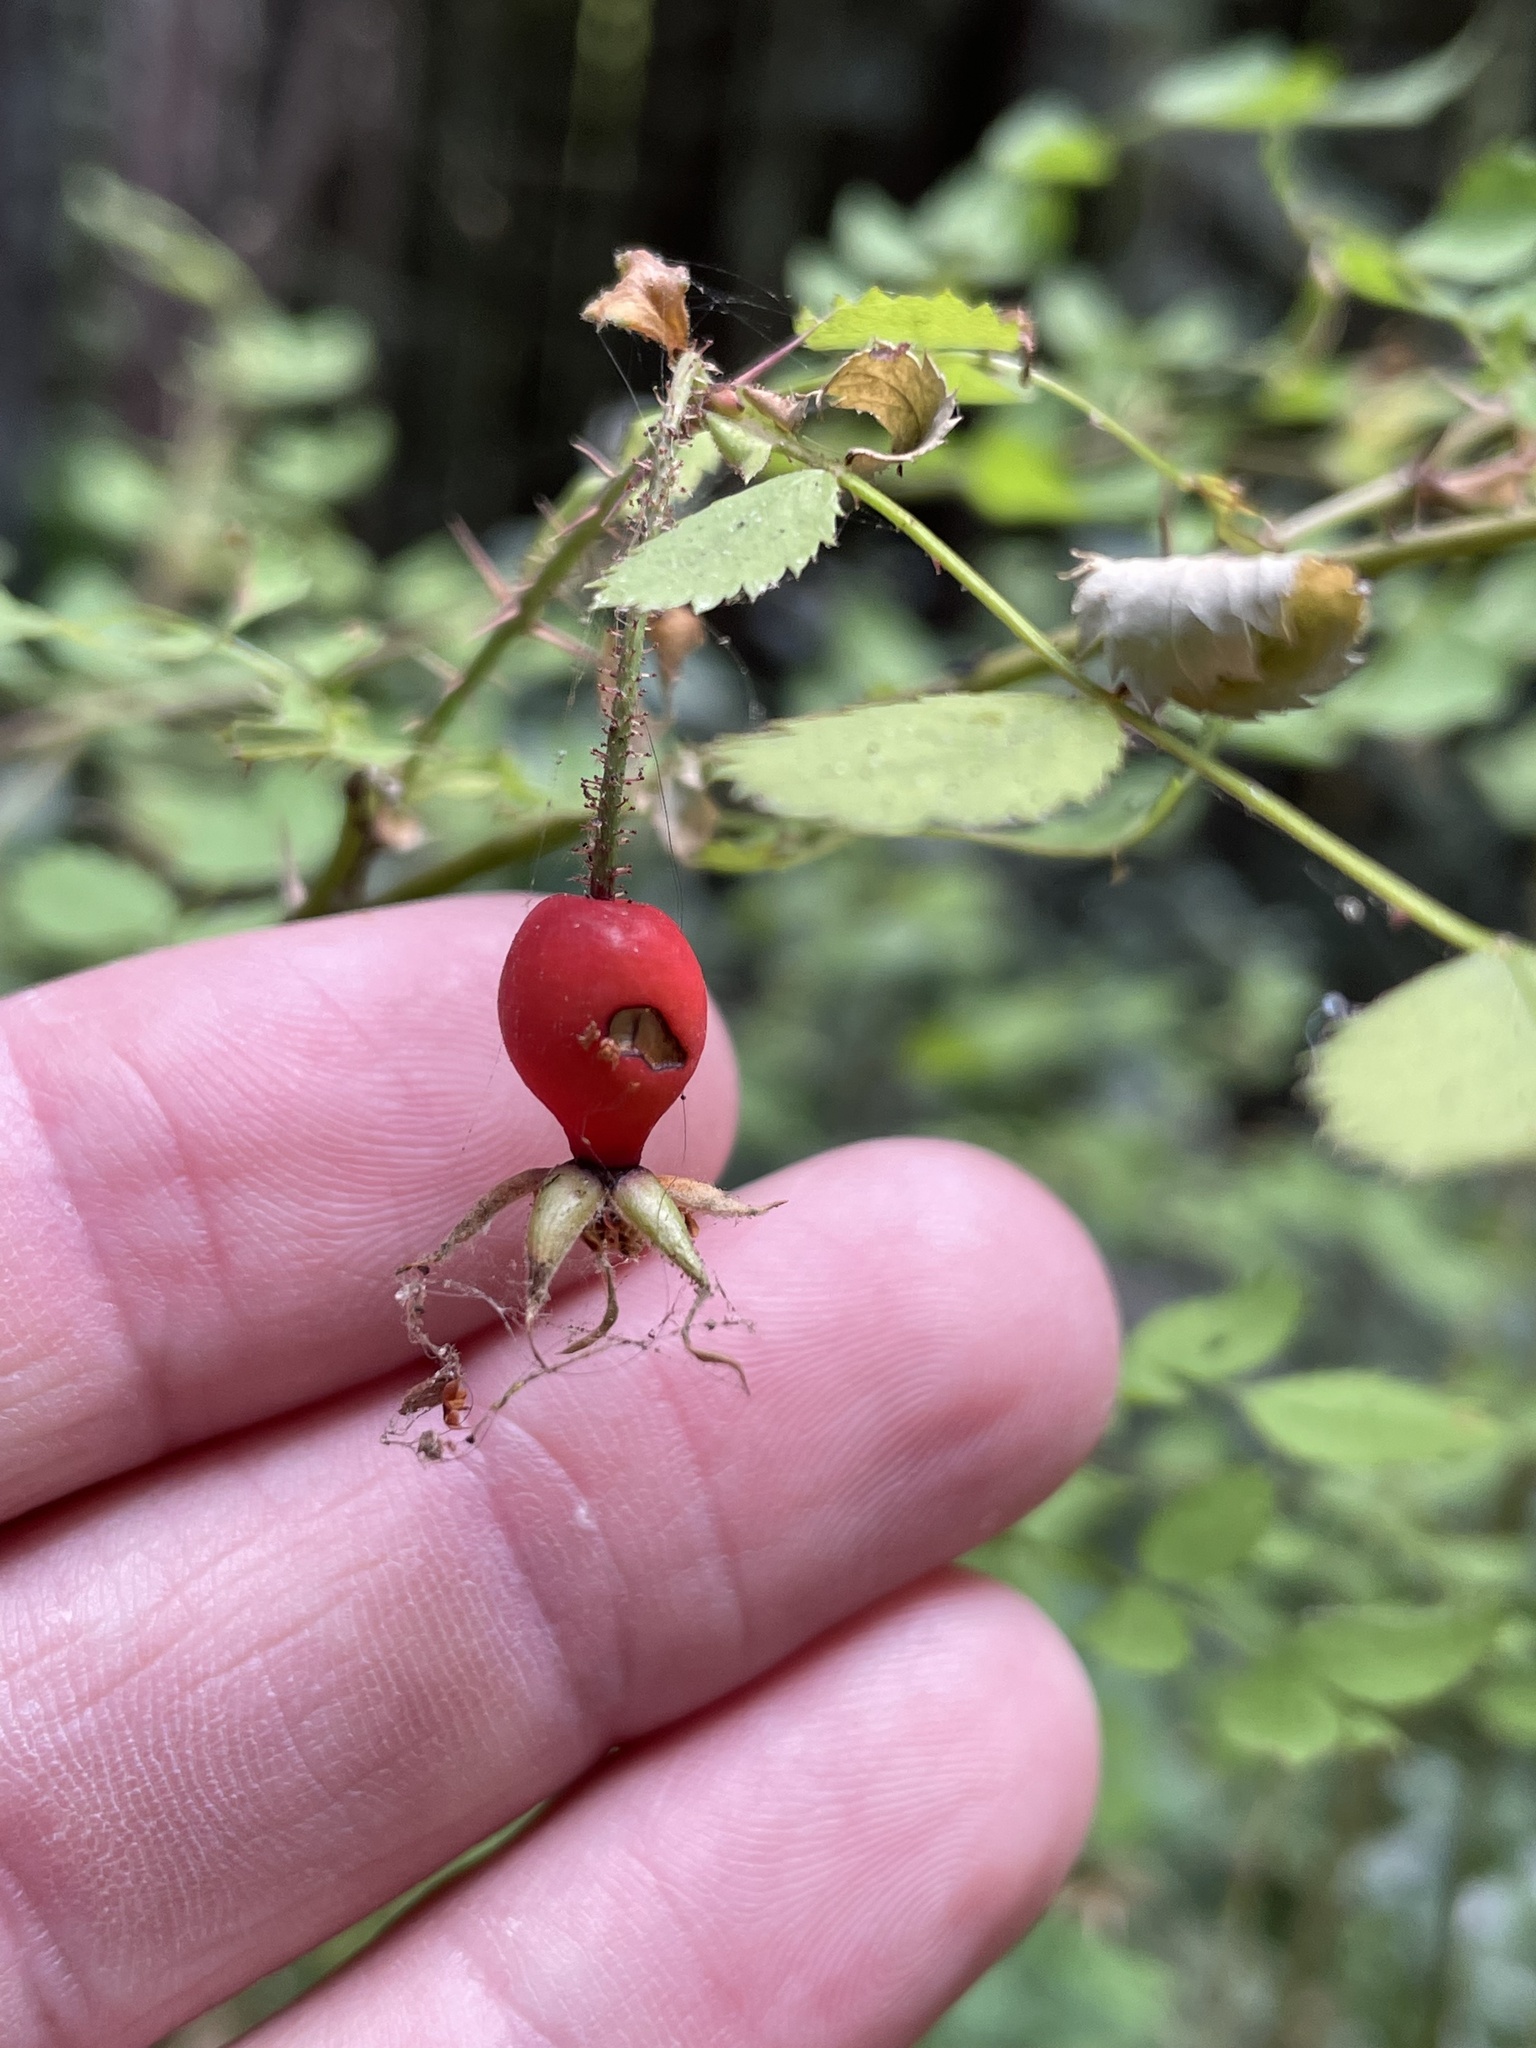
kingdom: Plantae
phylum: Tracheophyta
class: Magnoliopsida
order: Rosales
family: Rosaceae
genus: Rosa
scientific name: Rosa californica
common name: California rose
